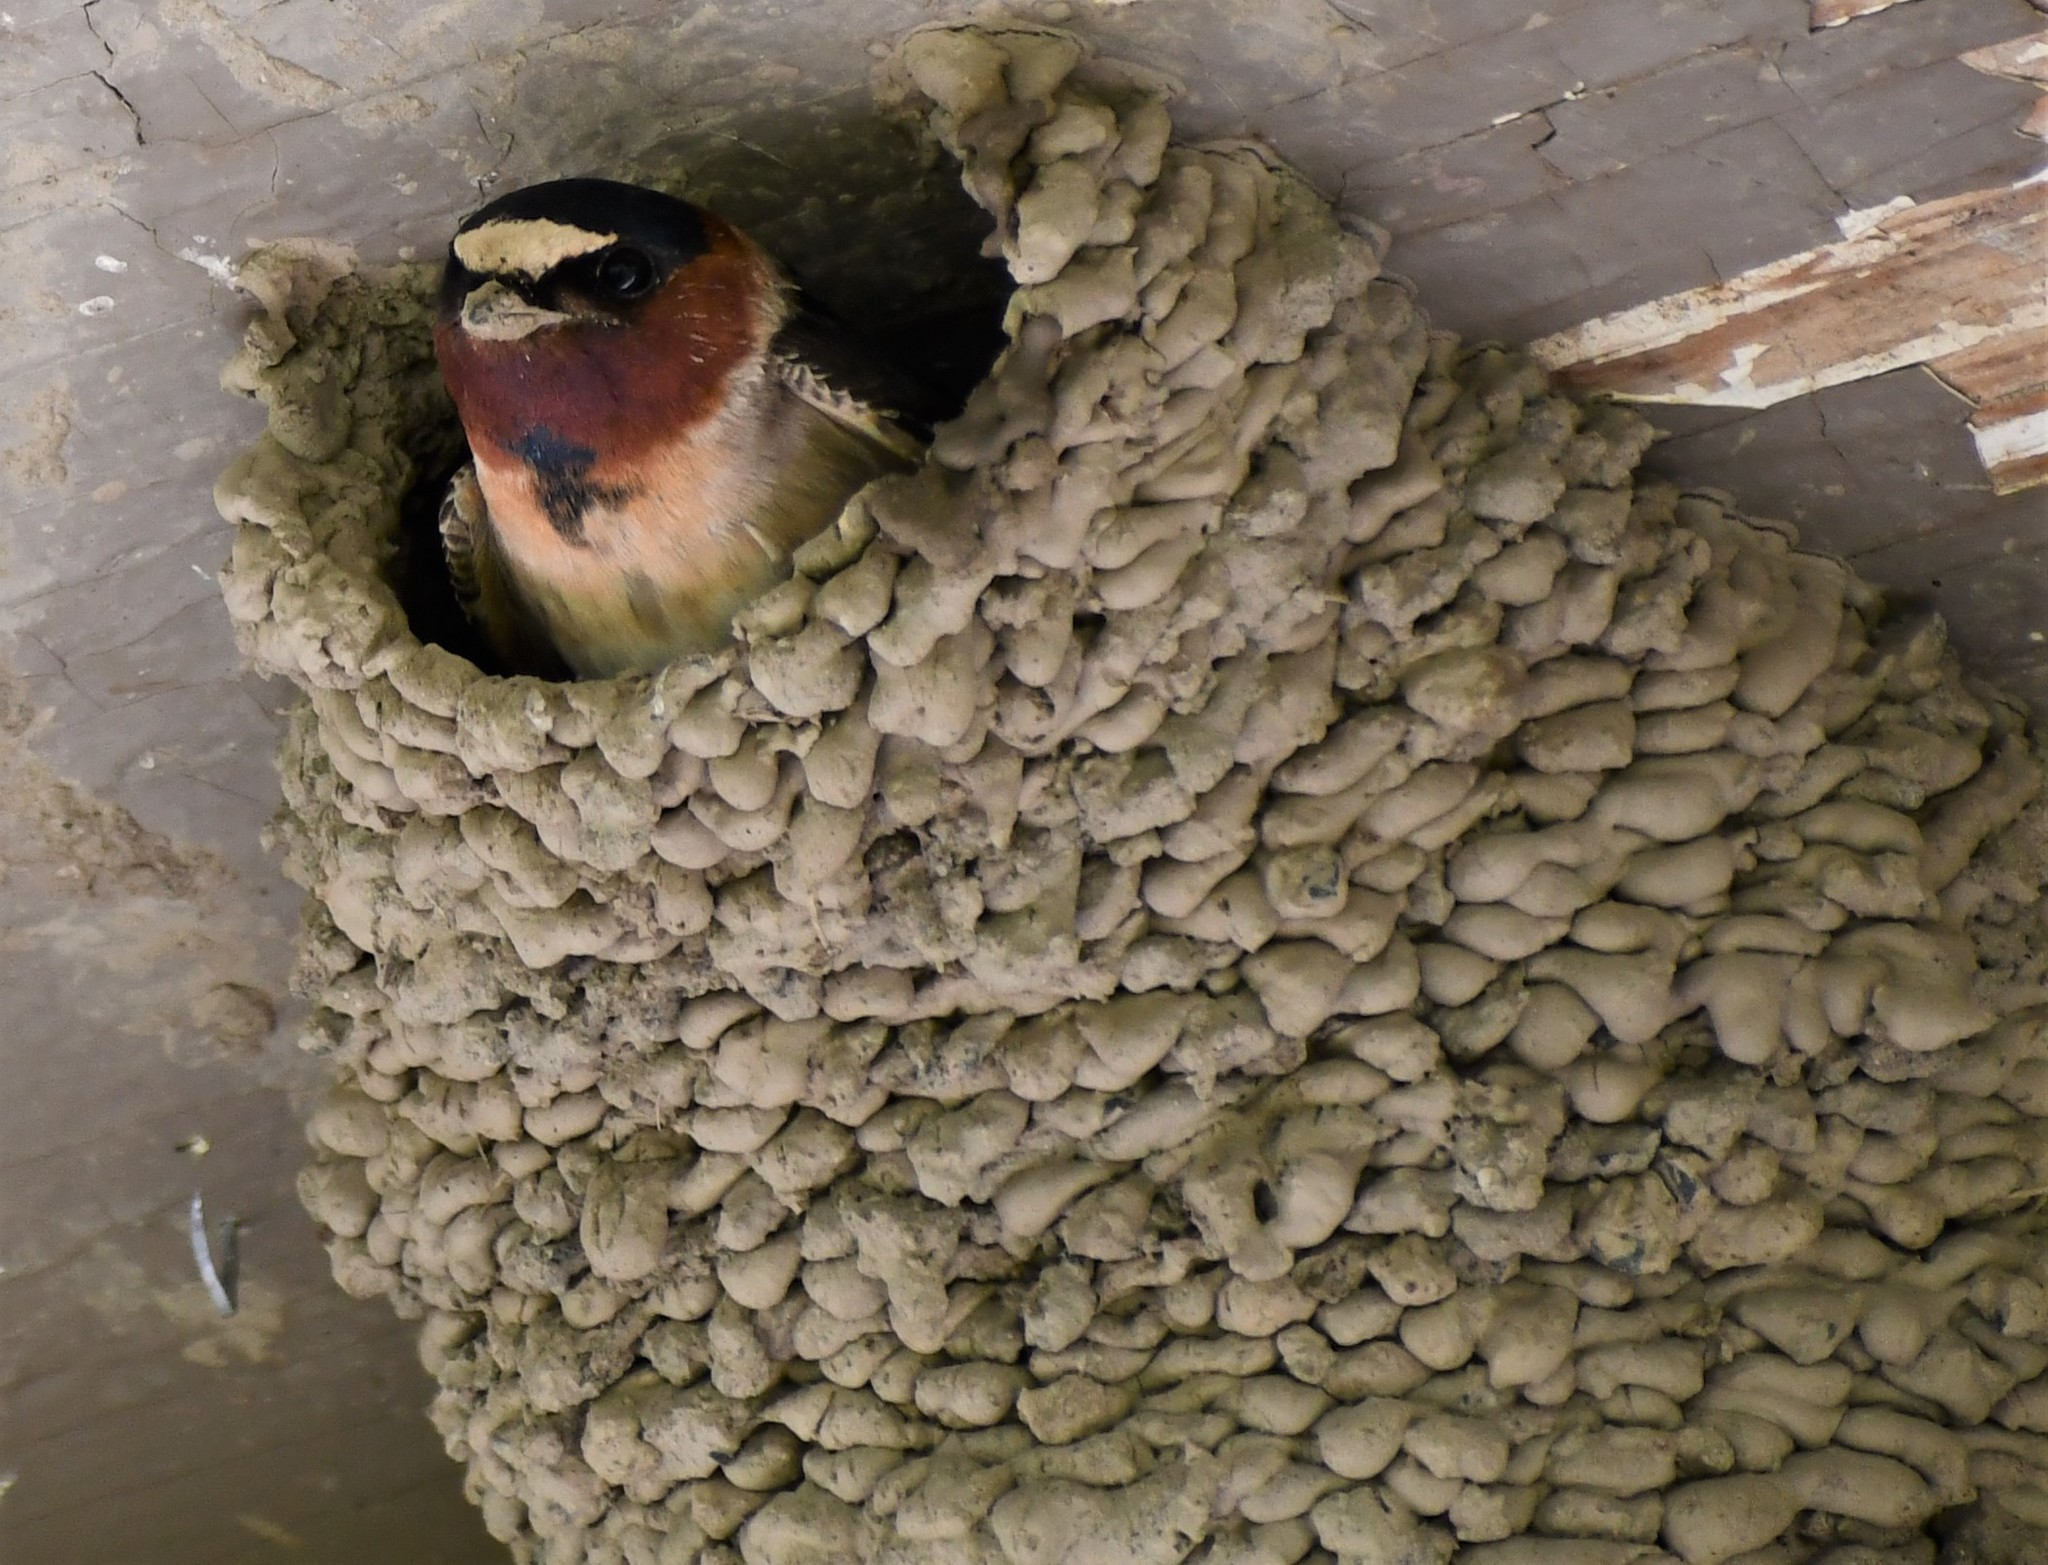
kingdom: Animalia
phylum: Chordata
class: Aves
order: Passeriformes
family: Hirundinidae
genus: Petrochelidon
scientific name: Petrochelidon pyrrhonota
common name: American cliff swallow
